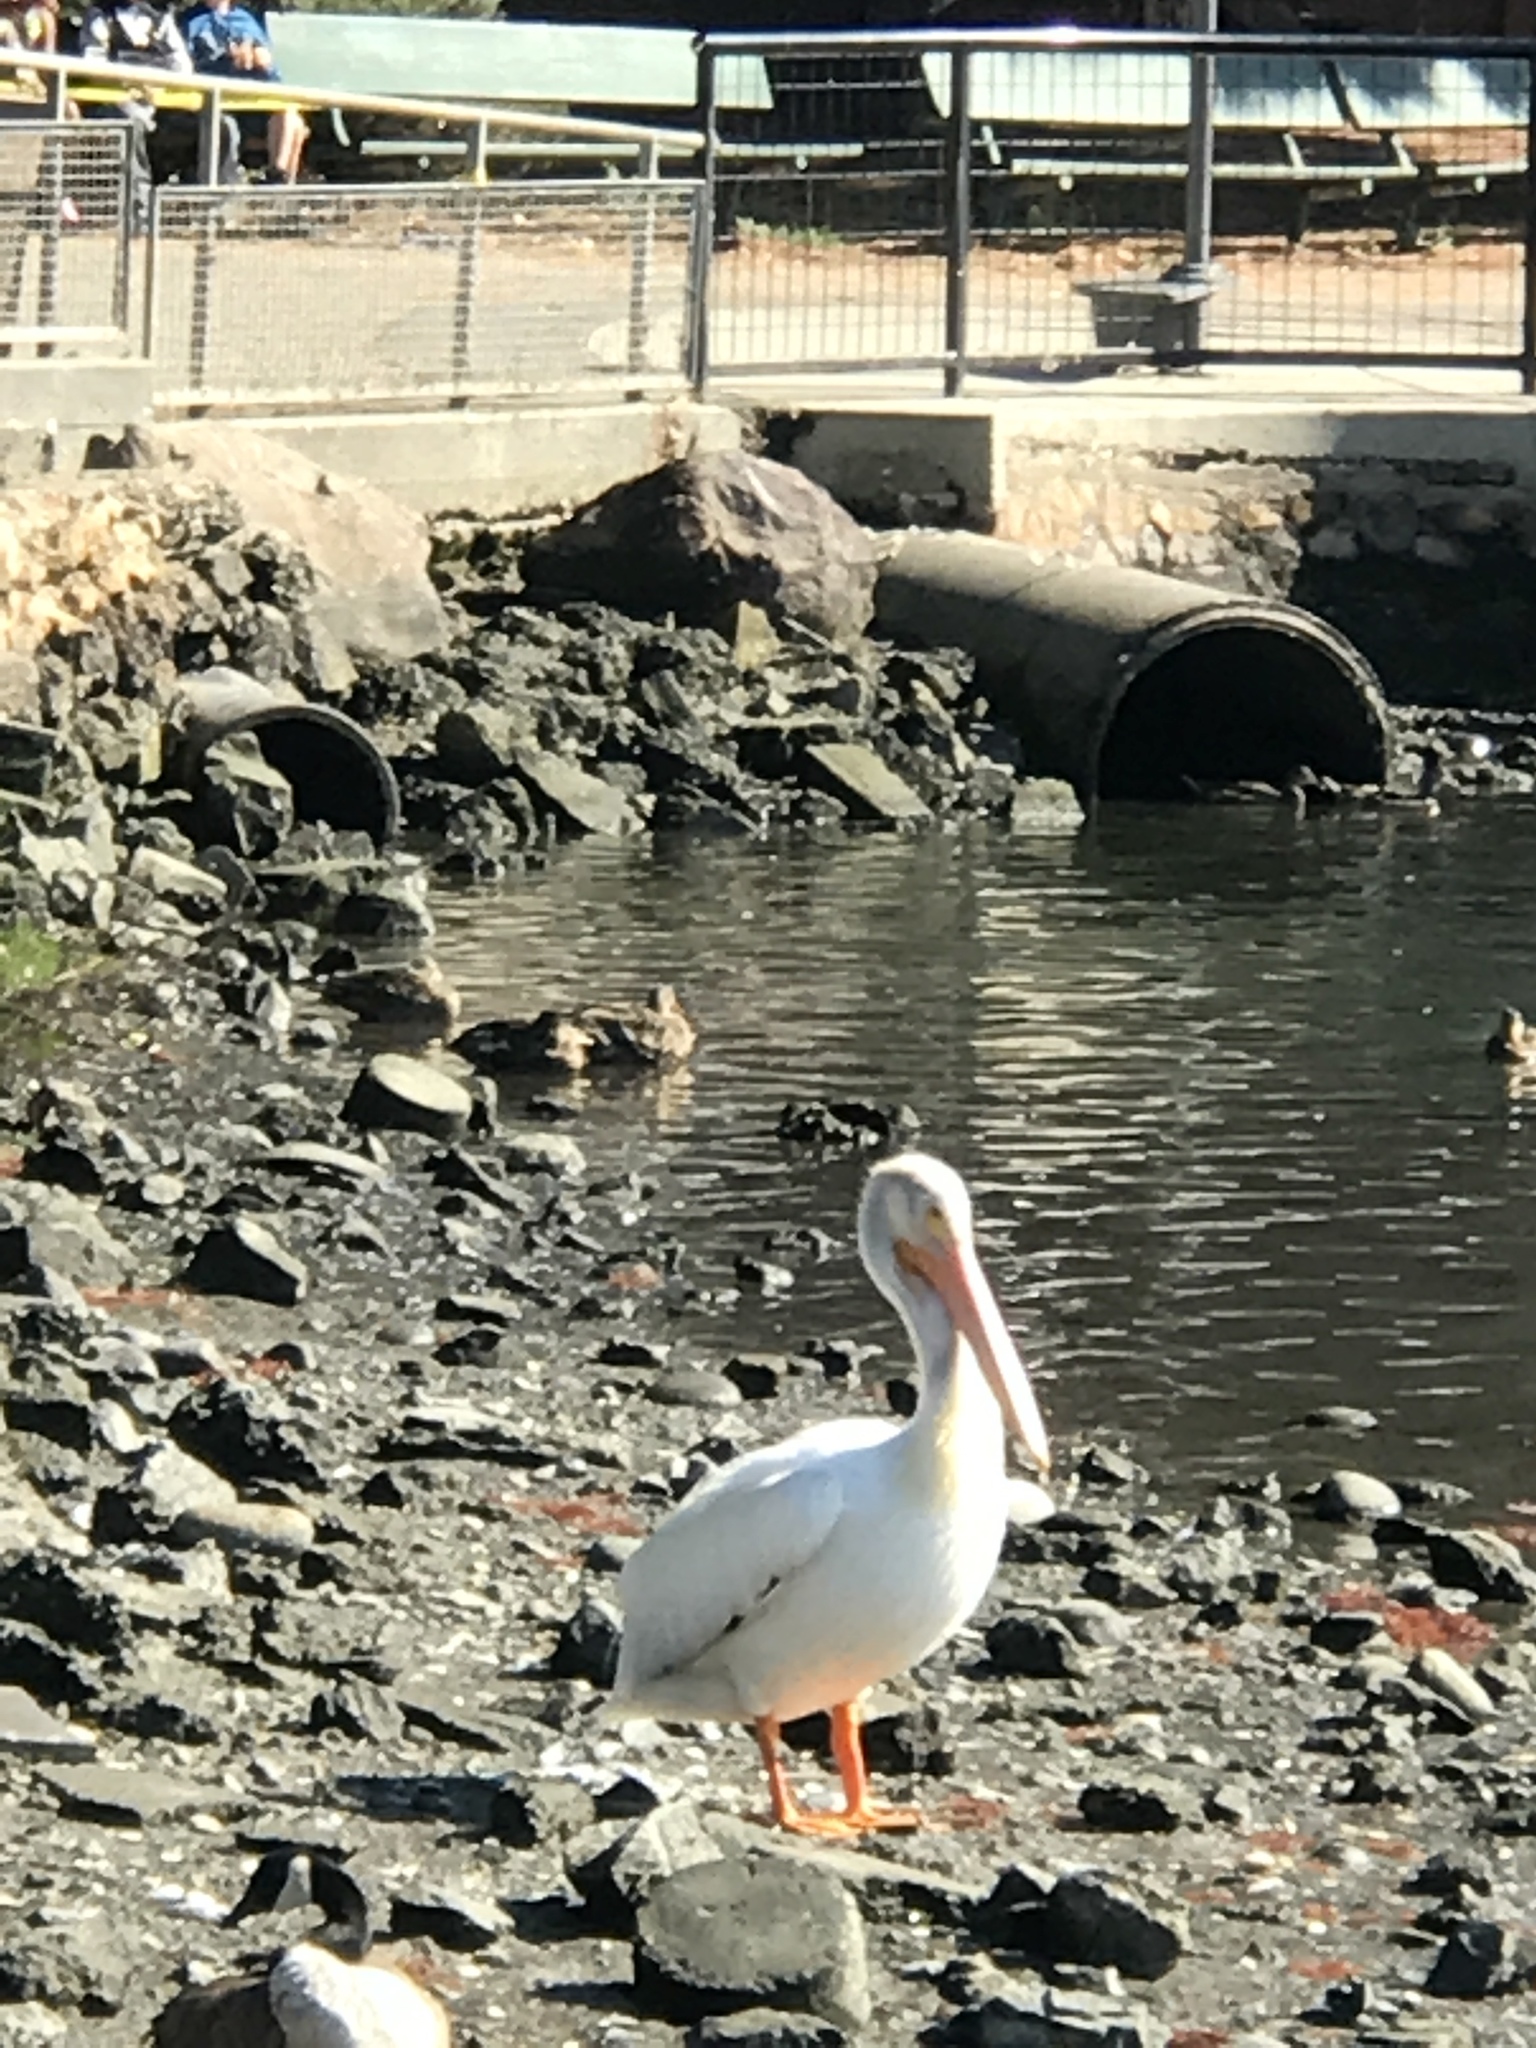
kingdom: Animalia
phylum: Chordata
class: Aves
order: Pelecaniformes
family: Pelecanidae
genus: Pelecanus
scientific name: Pelecanus erythrorhynchos
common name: American white pelican
